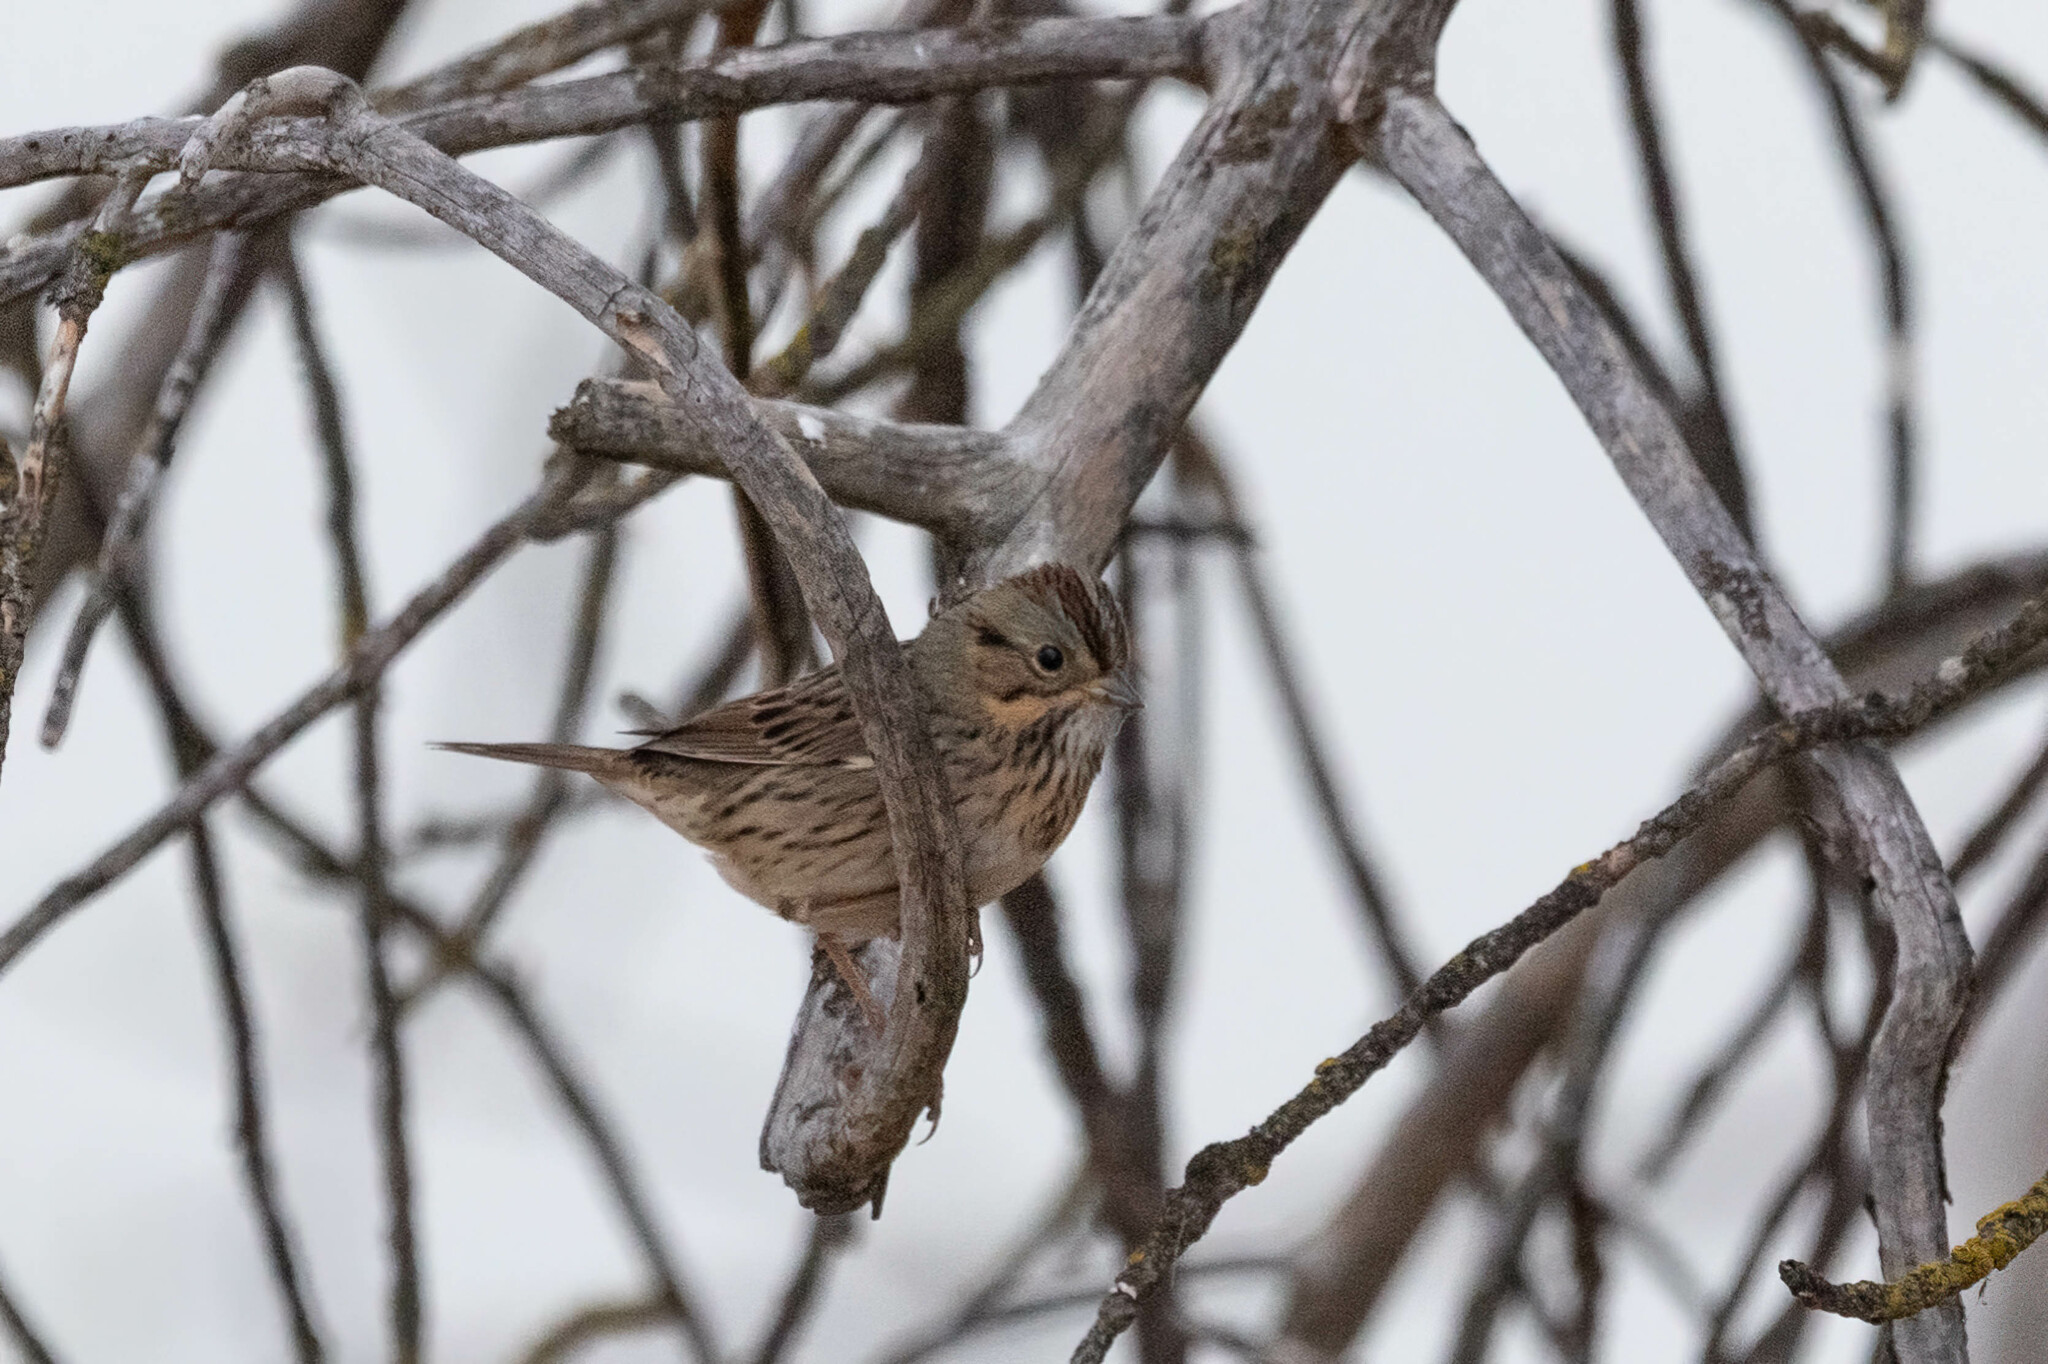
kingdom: Animalia
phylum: Chordata
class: Aves
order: Passeriformes
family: Passerellidae
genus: Melospiza
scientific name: Melospiza lincolnii
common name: Lincoln's sparrow
